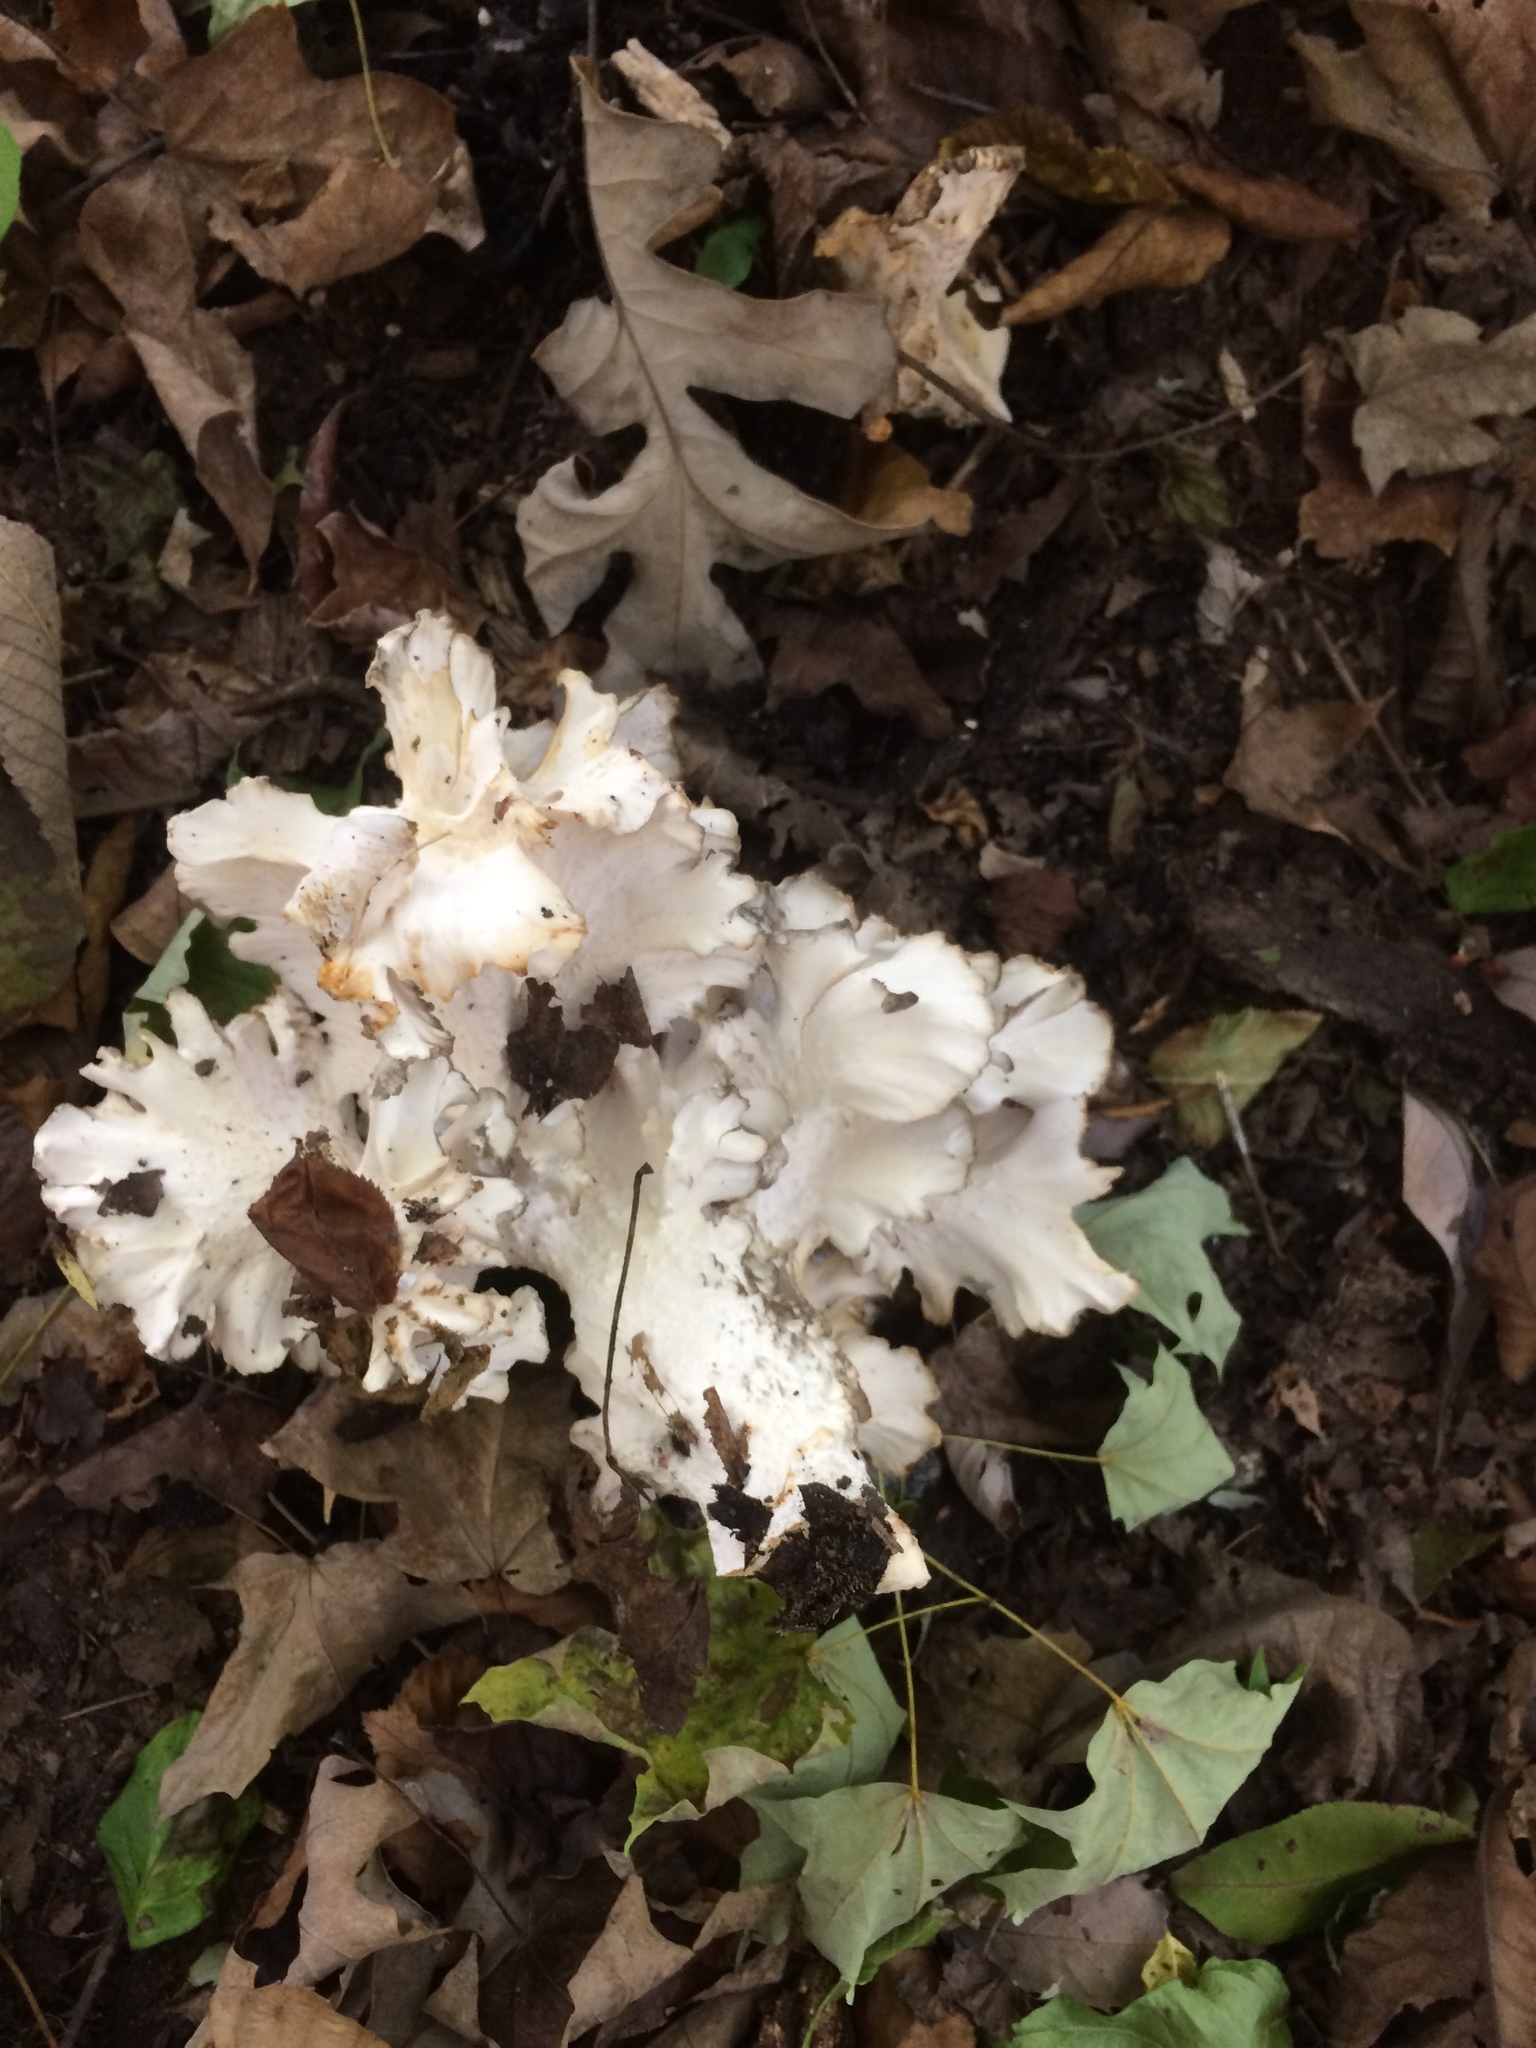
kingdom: Fungi
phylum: Basidiomycota
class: Agaricomycetes
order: Polyporales
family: Grifolaceae
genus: Grifola
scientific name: Grifola frondosa
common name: Hen of the woods
